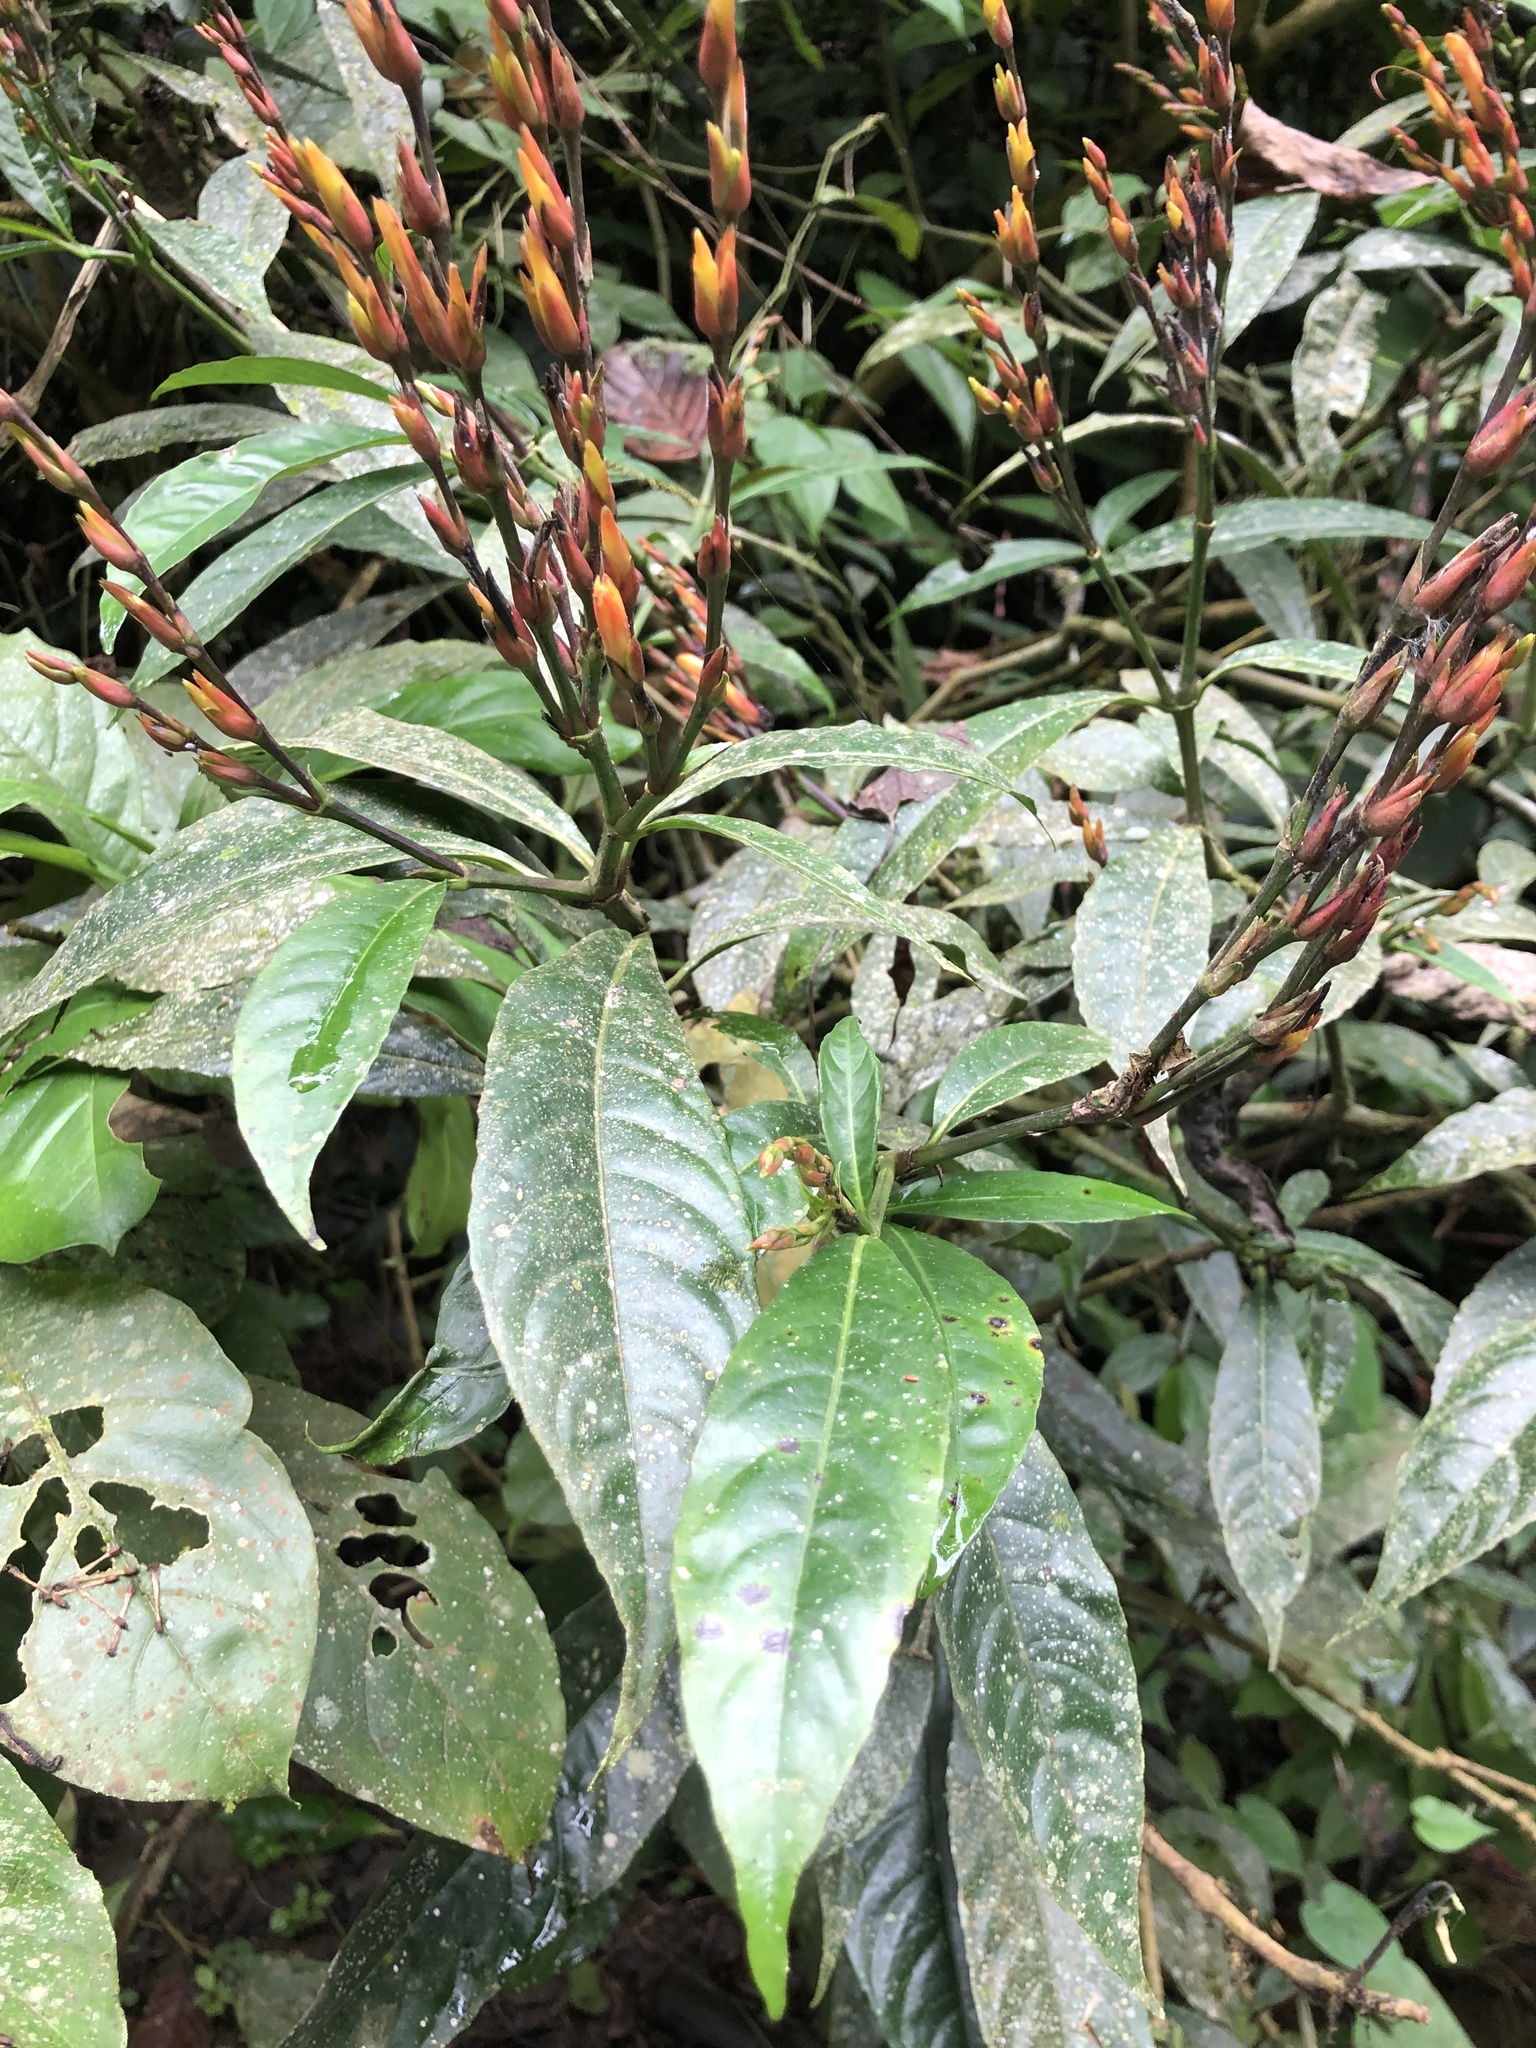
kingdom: Plantae
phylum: Tracheophyta
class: Magnoliopsida
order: Lamiales
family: Acanthaceae
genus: Sanchezia
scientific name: Sanchezia parviflora
